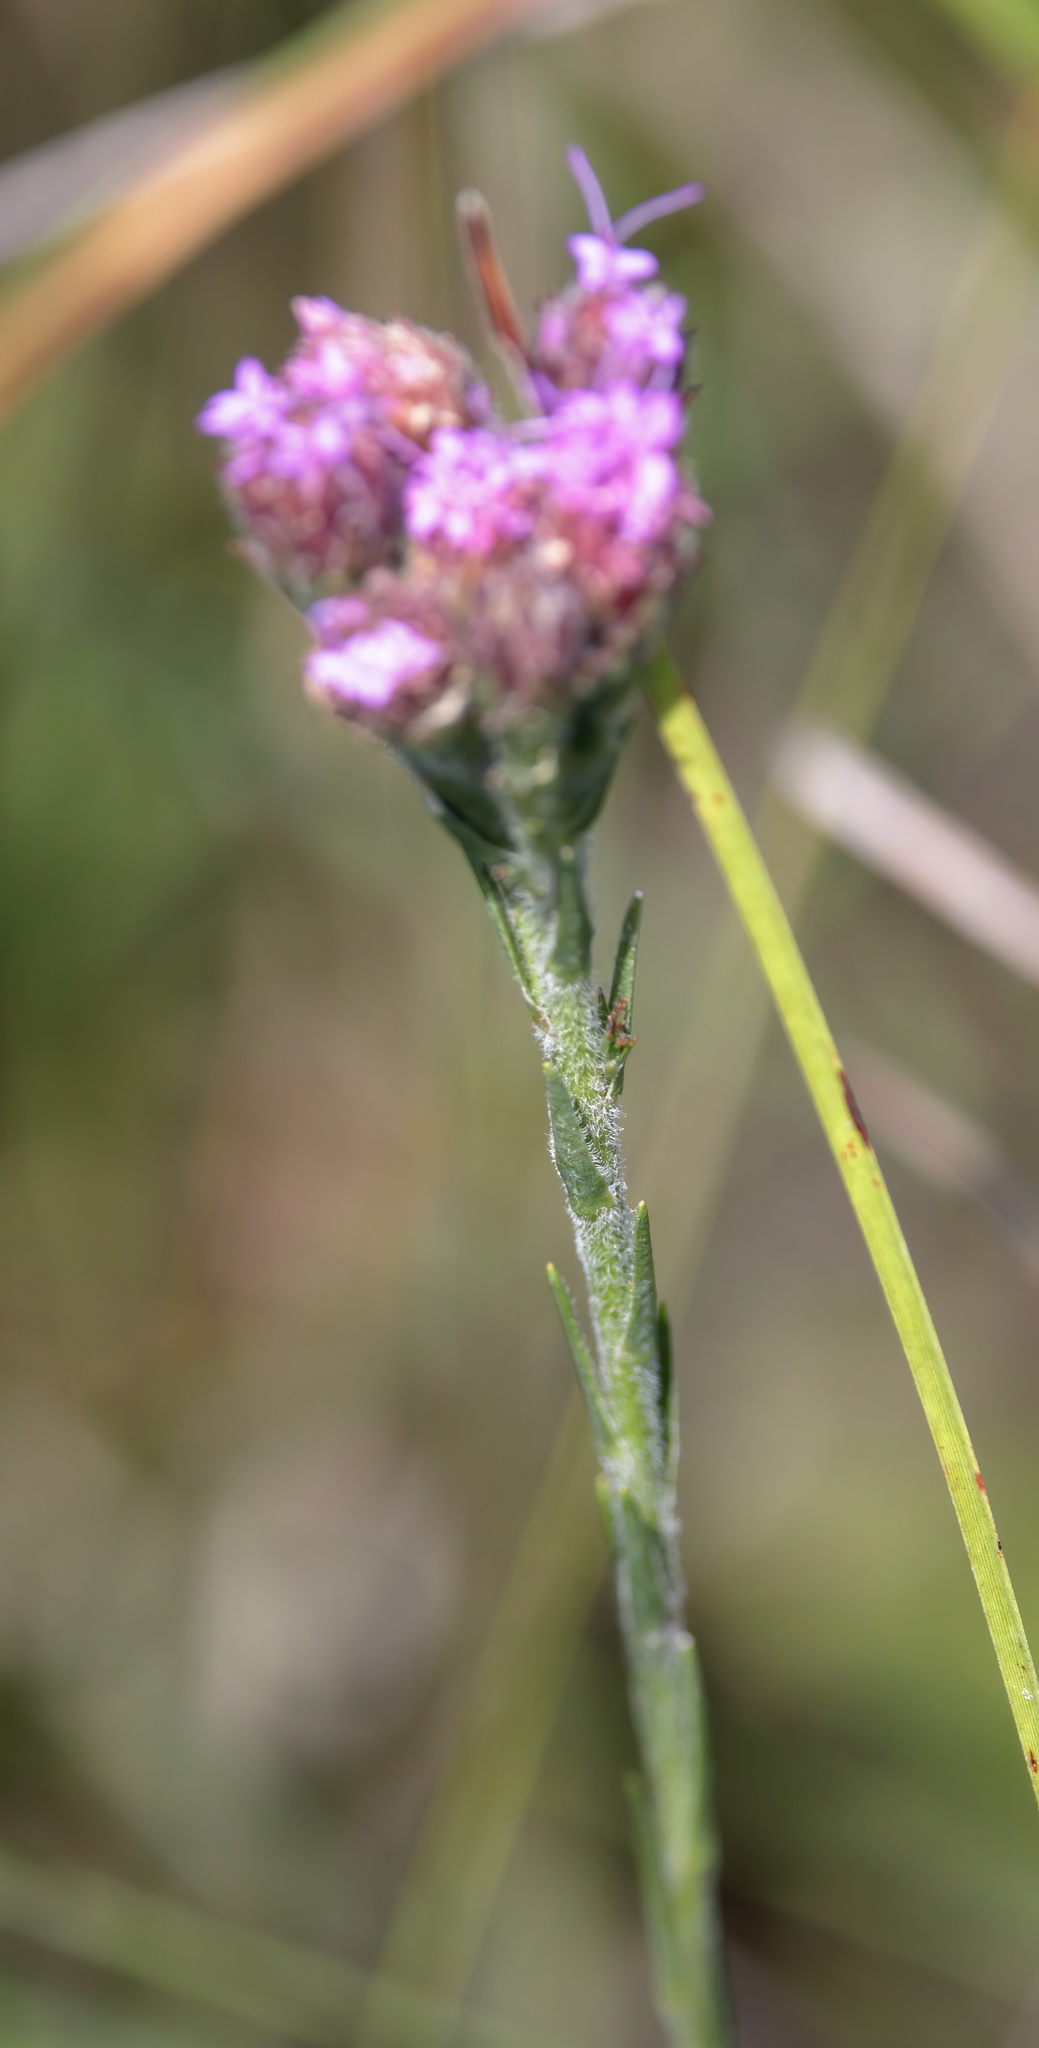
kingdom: Plantae
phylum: Tracheophyta
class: Magnoliopsida
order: Asterales
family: Asteraceae
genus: Carphephorus
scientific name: Carphephorus pseudoliatris
